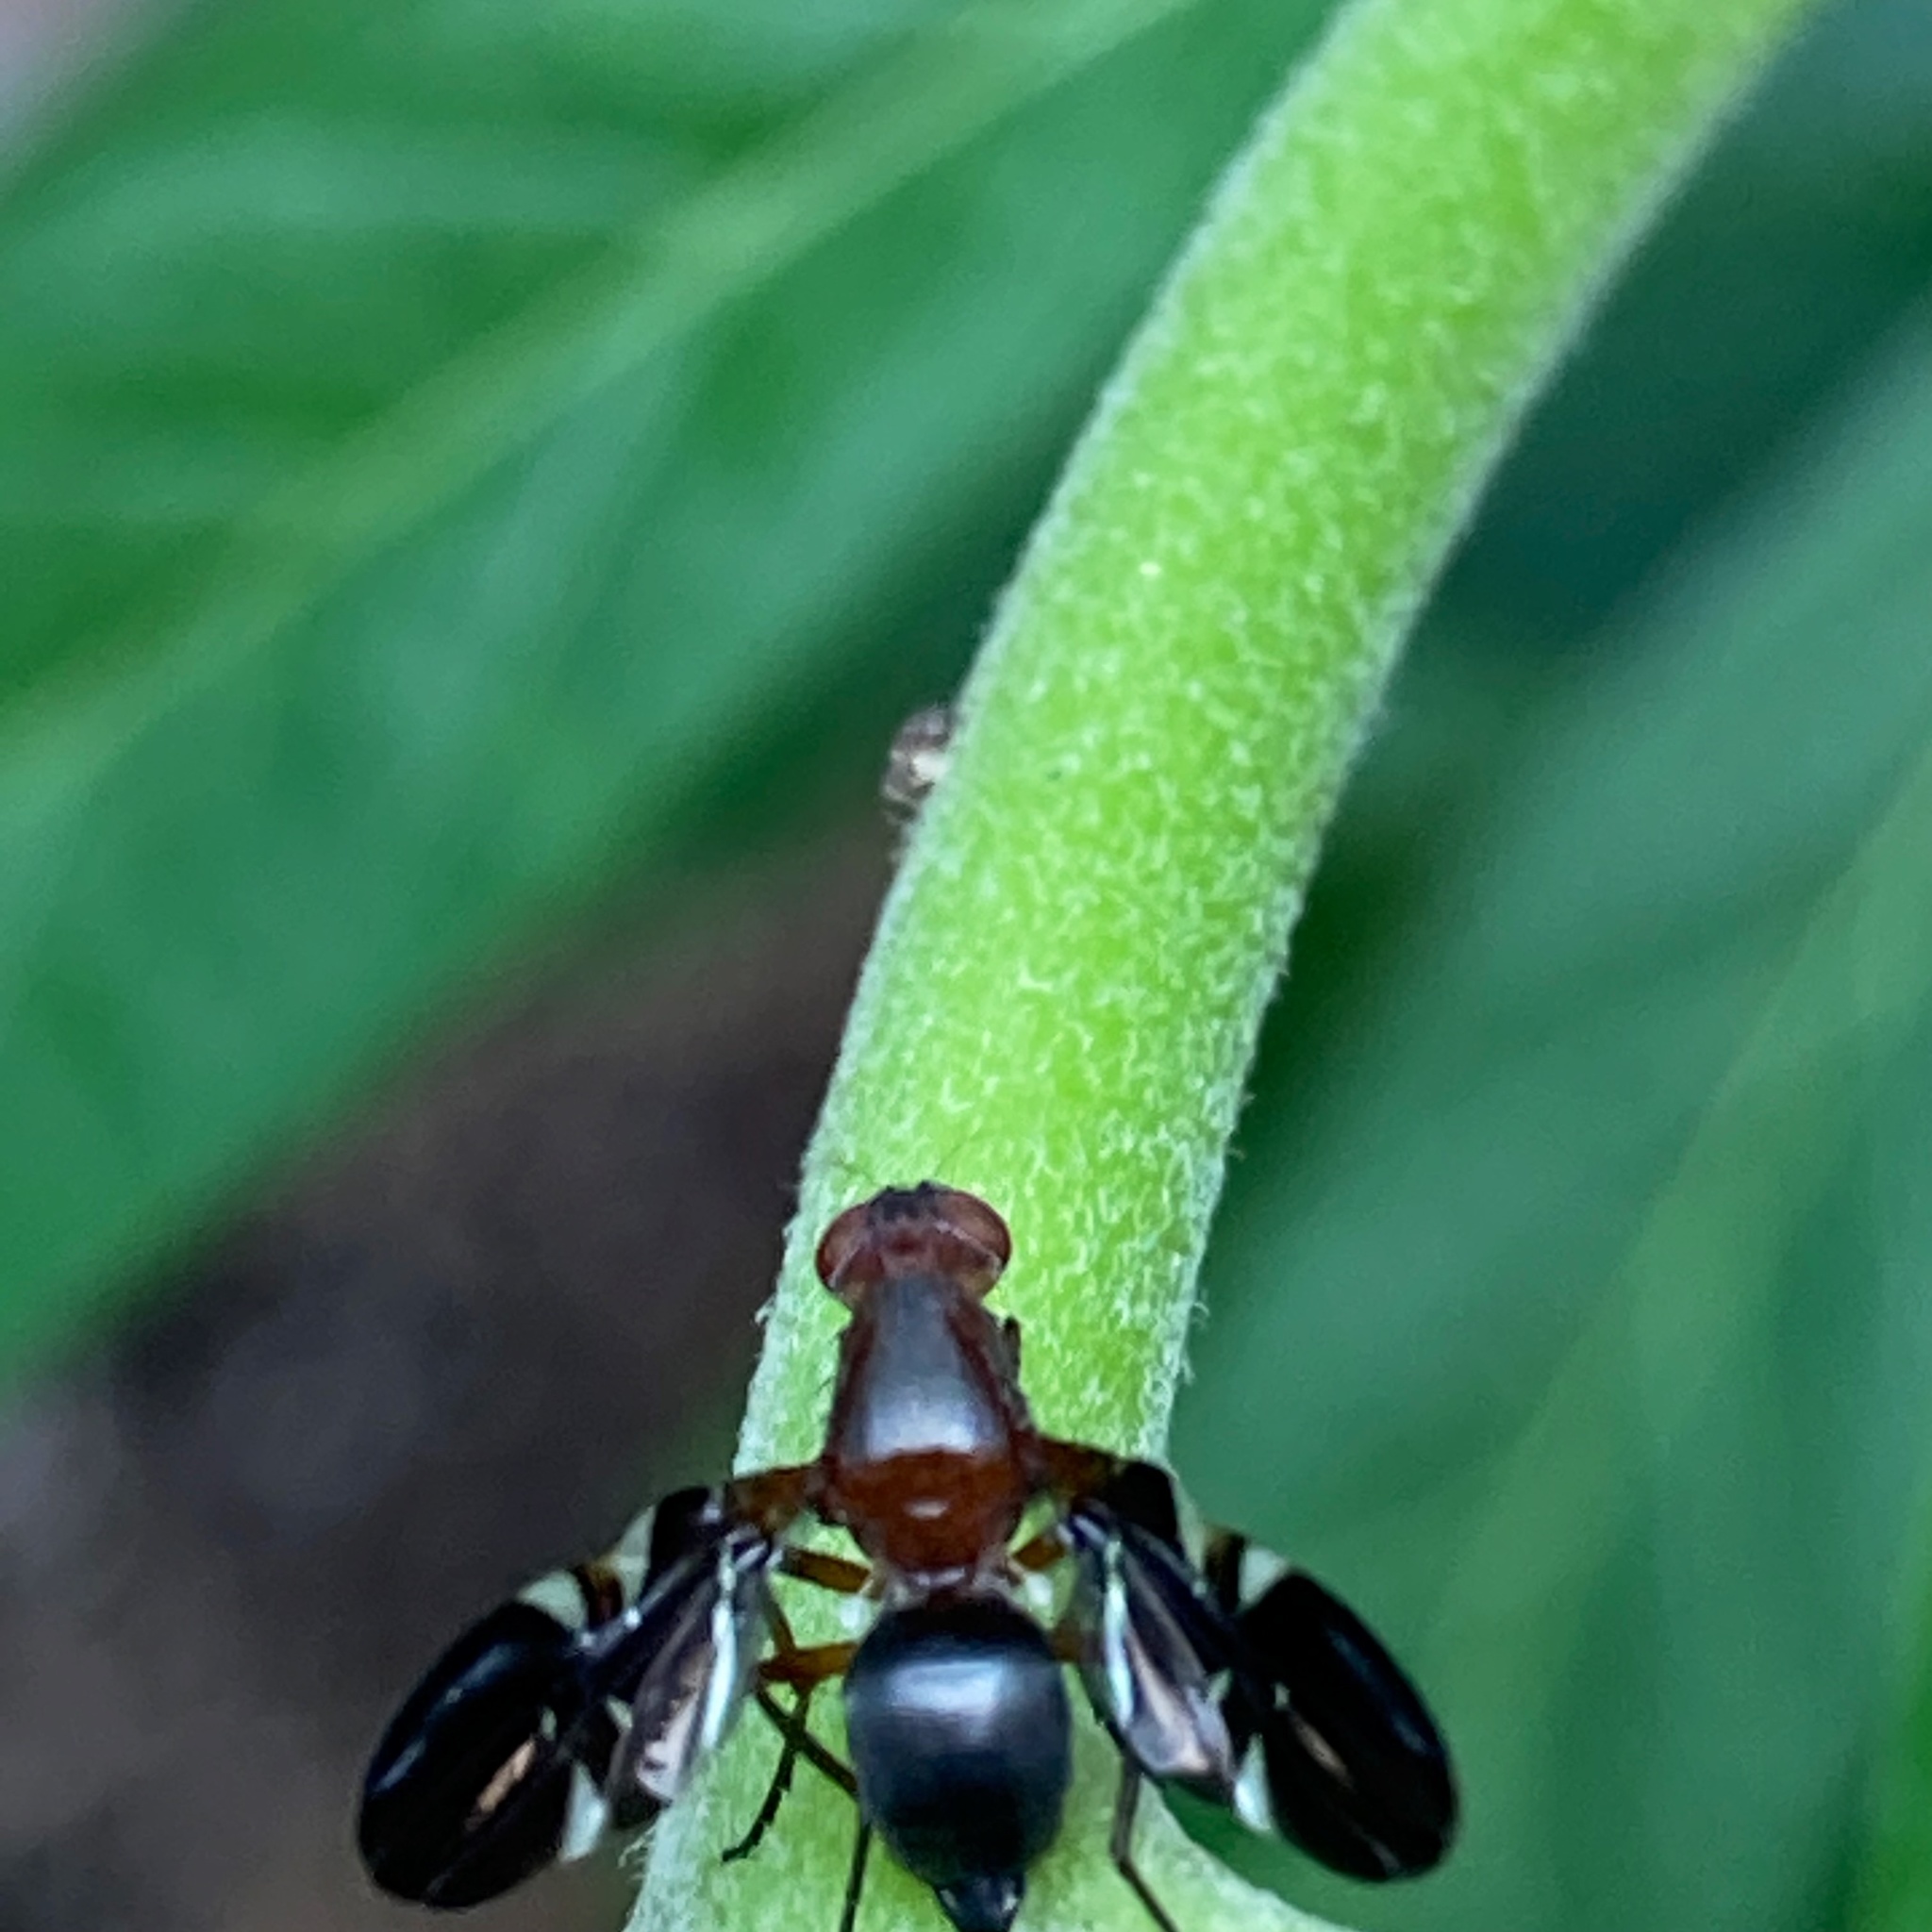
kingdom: Animalia
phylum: Arthropoda
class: Insecta
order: Diptera
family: Ulidiidae
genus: Delphinia
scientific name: Delphinia picta
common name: Common picture-winged fly
